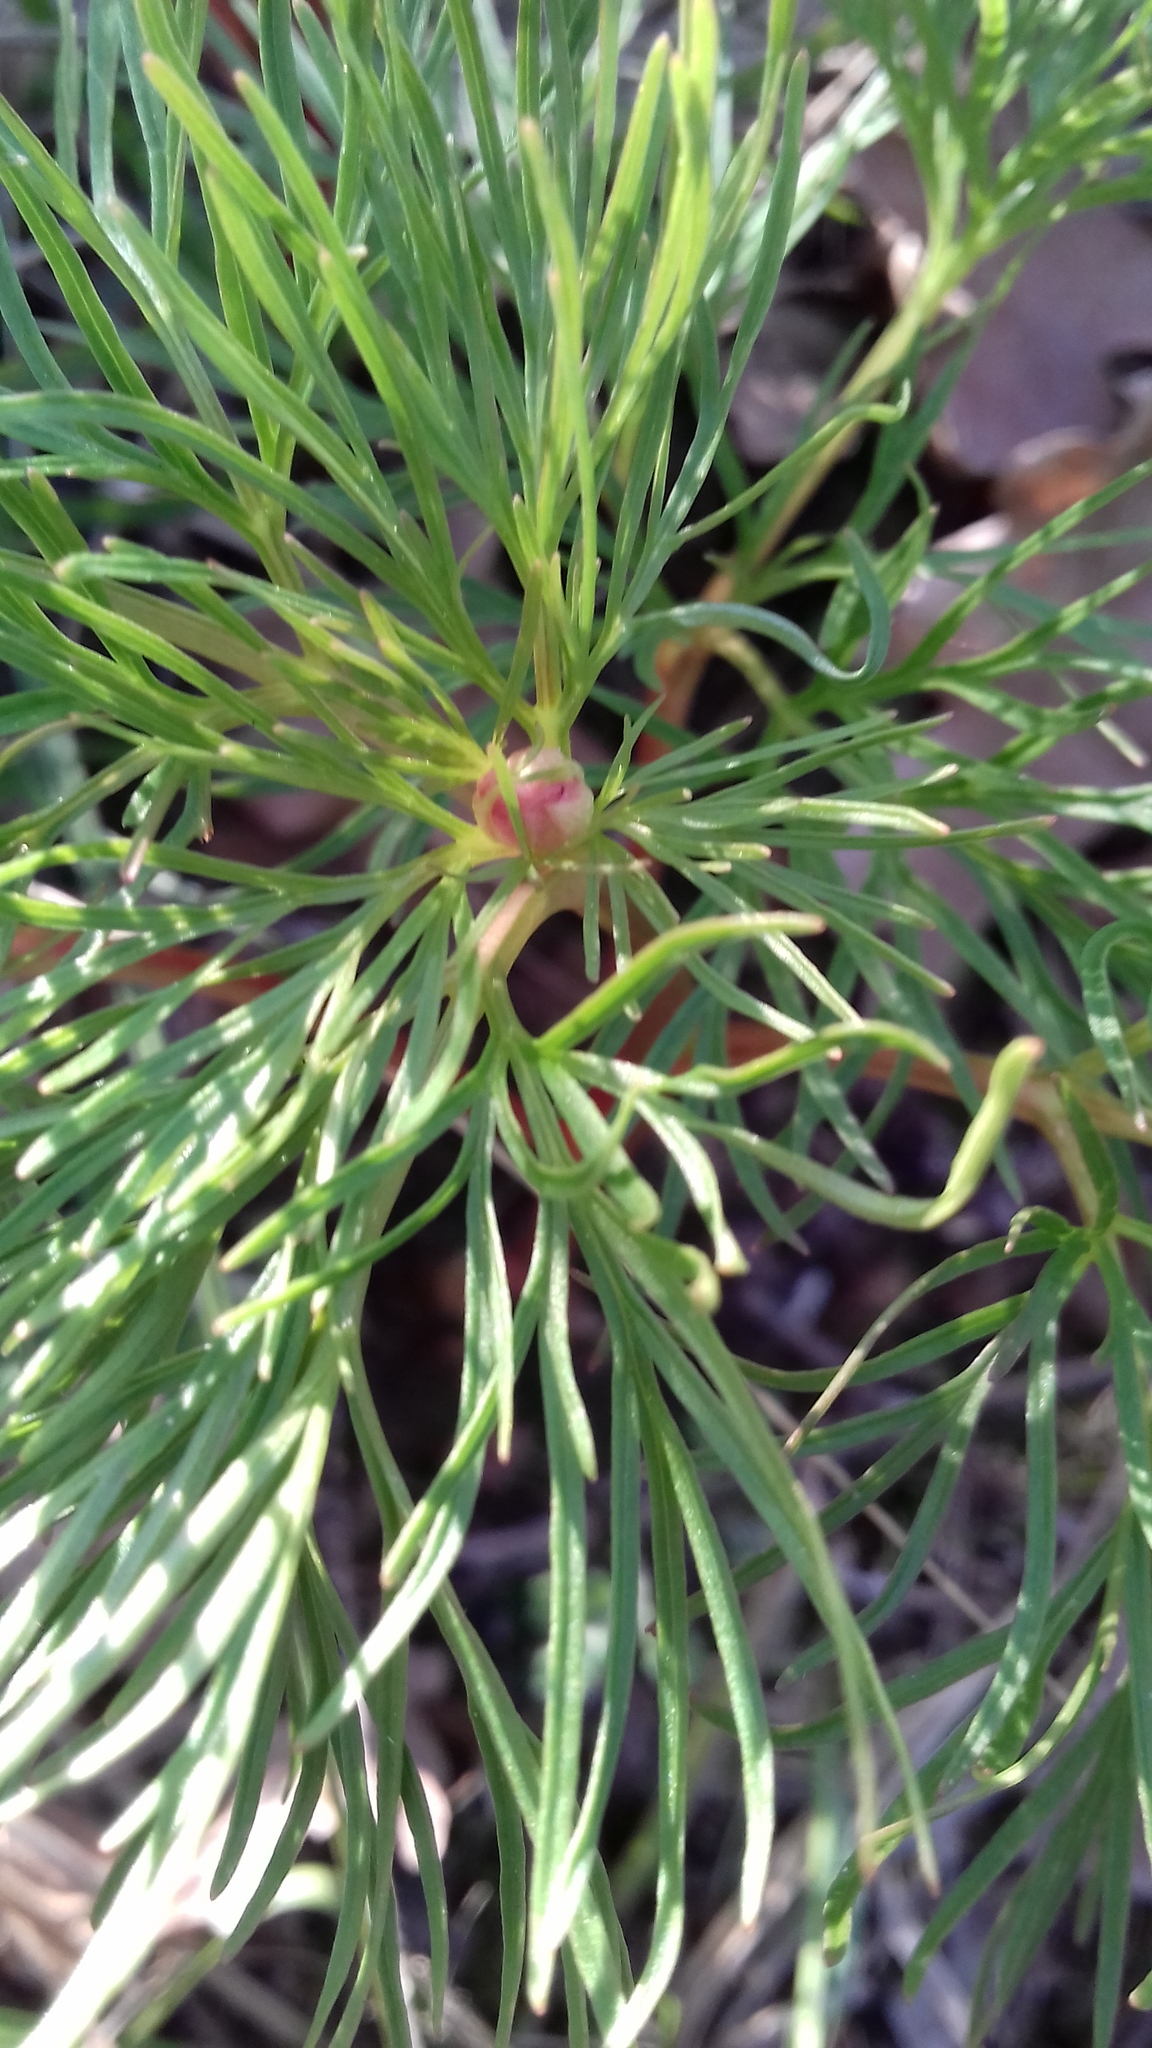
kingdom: Plantae
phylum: Tracheophyta
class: Magnoliopsida
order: Saxifragales
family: Paeoniaceae
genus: Paeonia
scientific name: Paeonia tenuifolia
